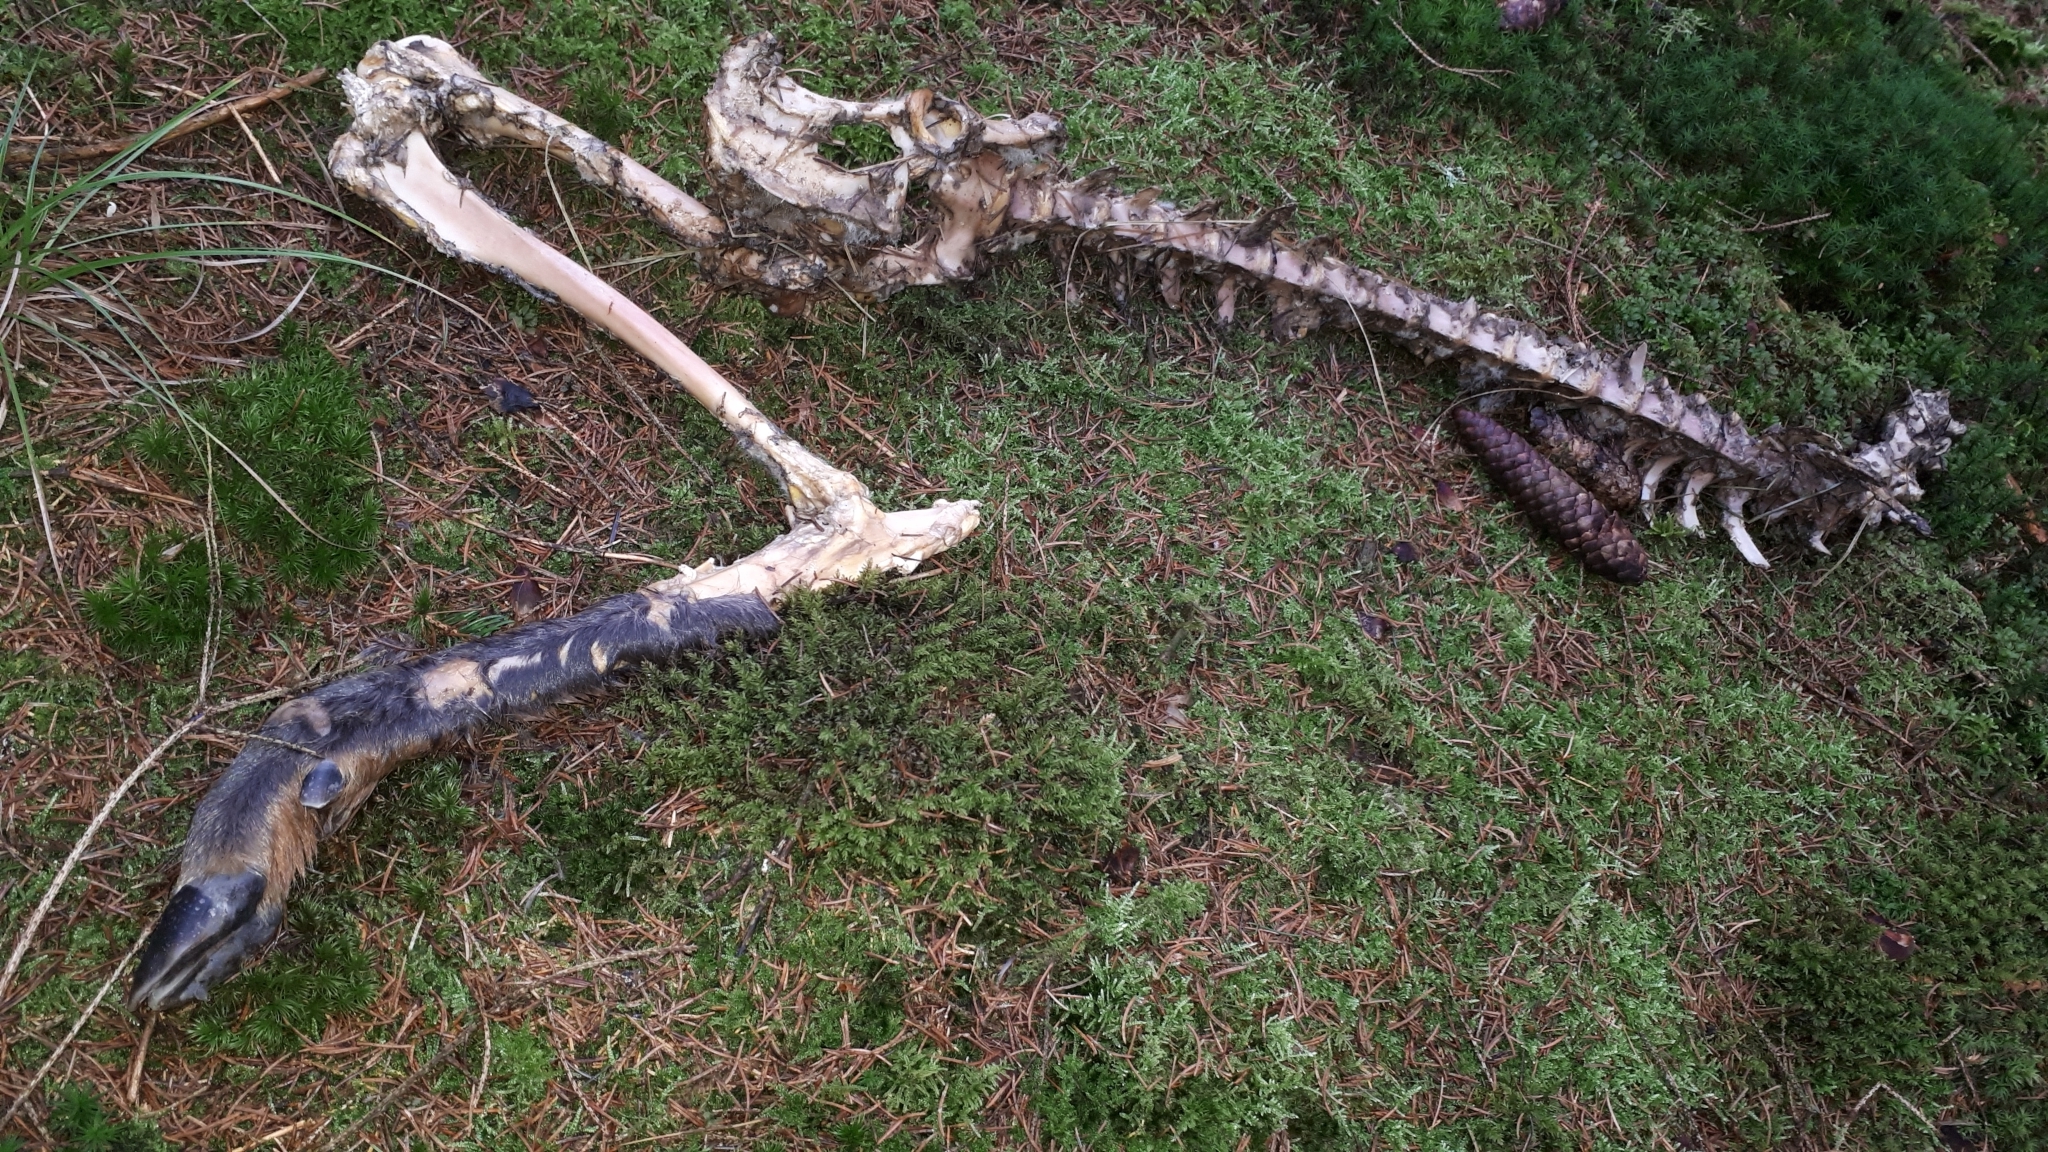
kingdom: Animalia
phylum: Chordata
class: Mammalia
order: Artiodactyla
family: Cervidae
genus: Capreolus
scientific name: Capreolus capreolus
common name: Western roe deer
